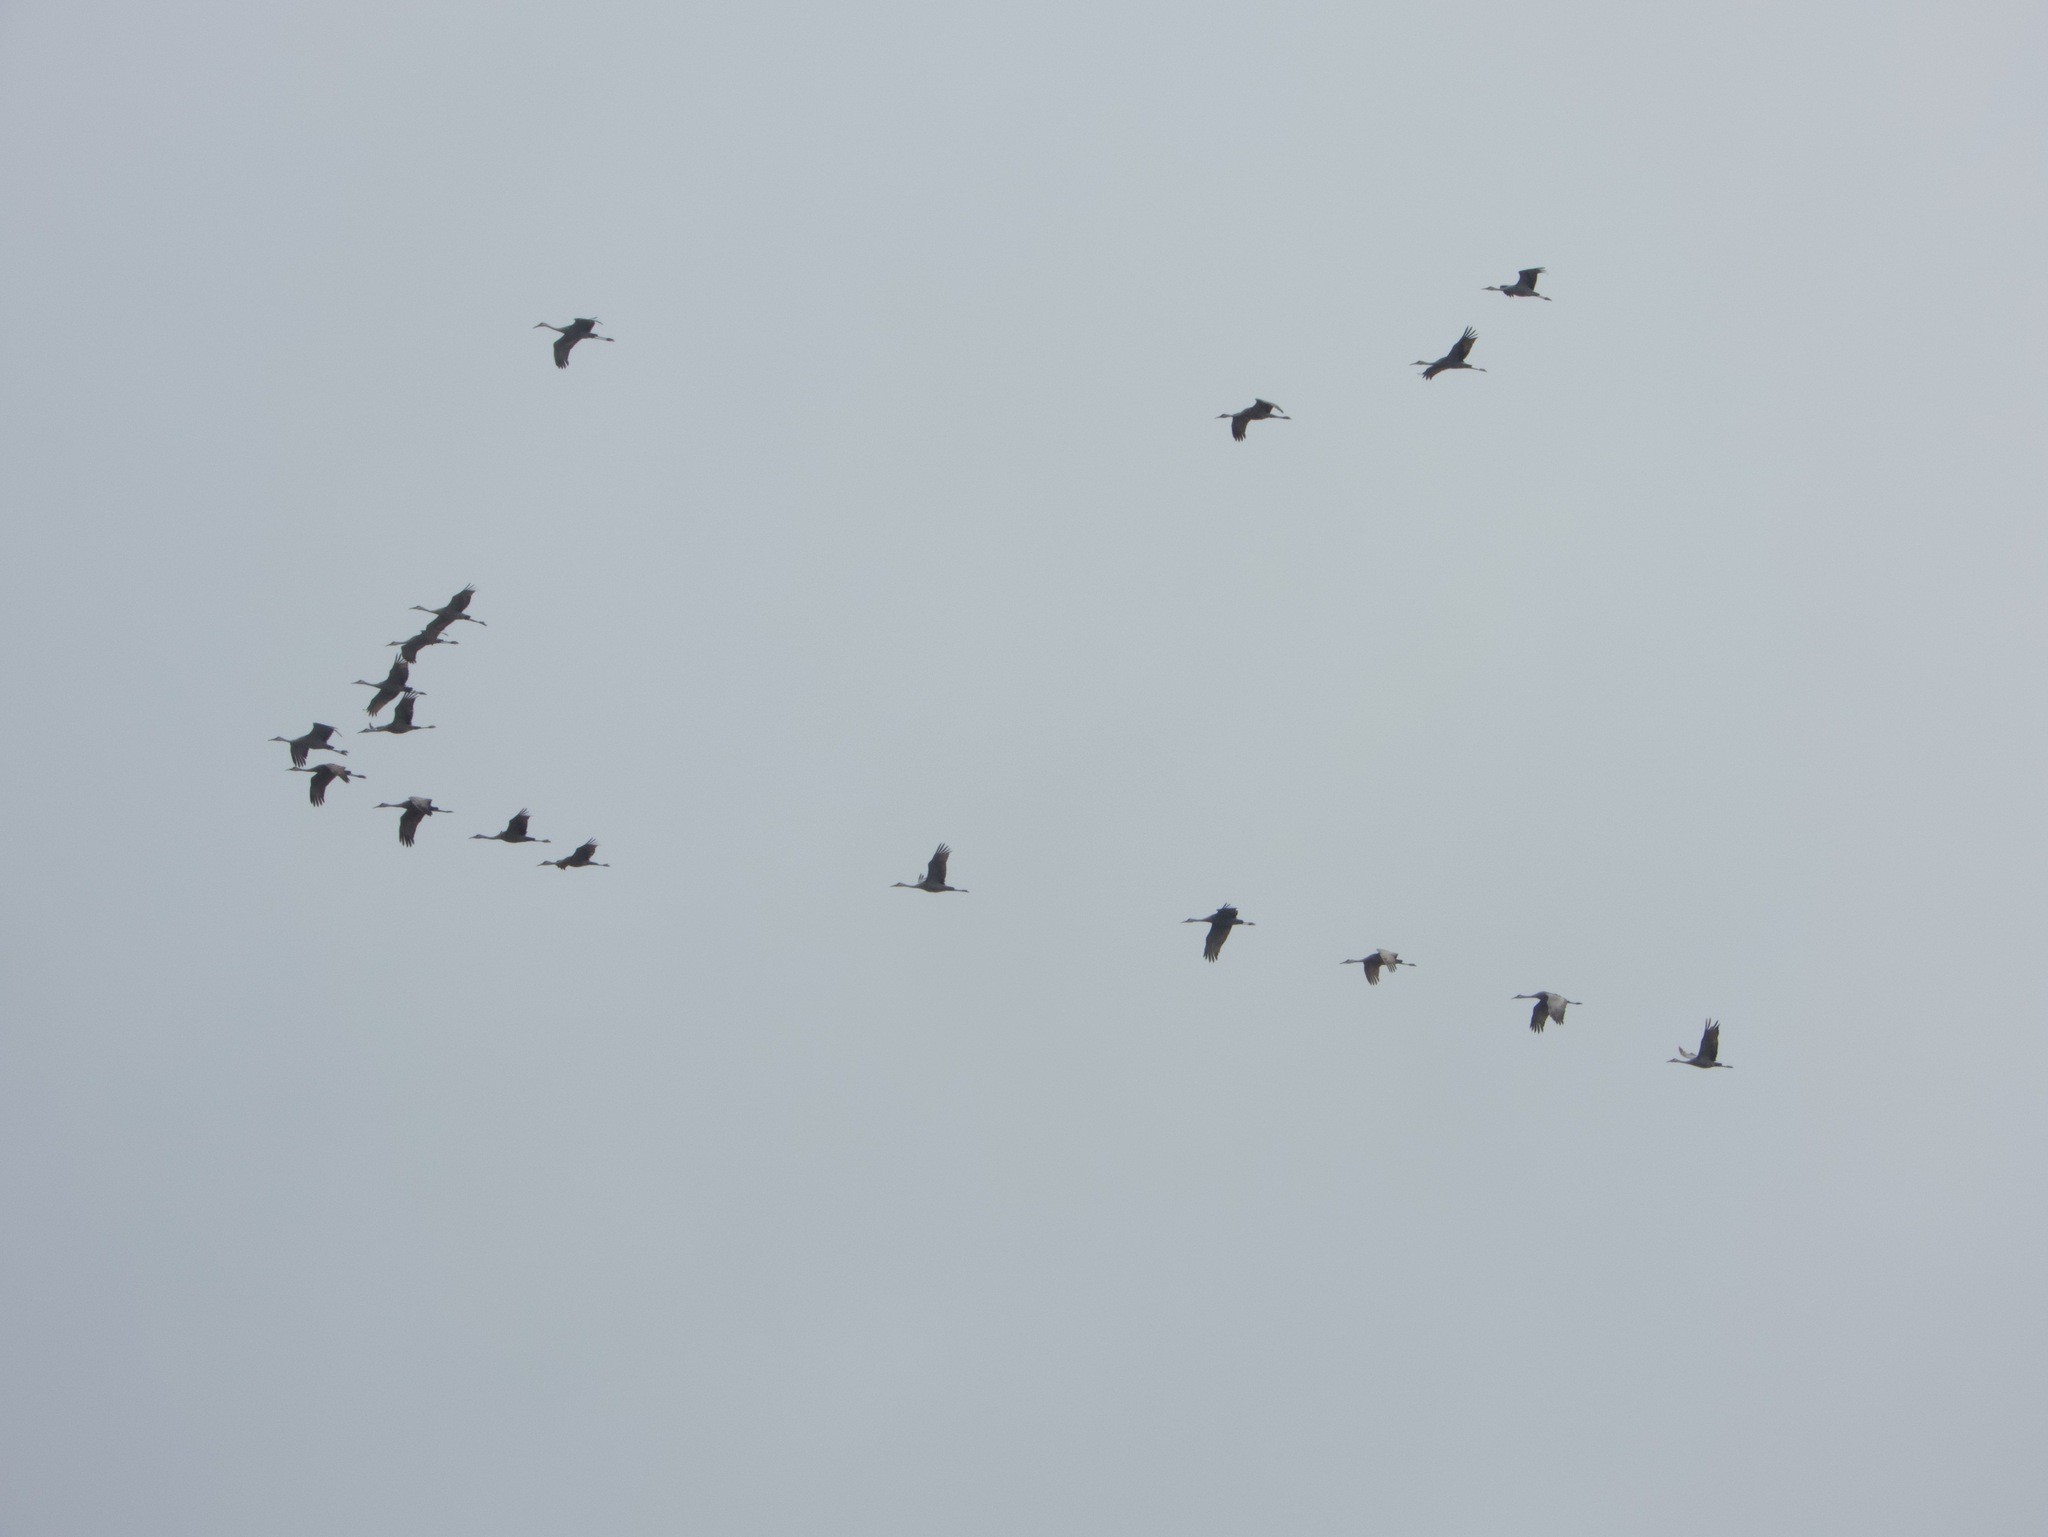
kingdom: Animalia
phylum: Chordata
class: Aves
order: Gruiformes
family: Gruidae
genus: Grus
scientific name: Grus canadensis
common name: Sandhill crane
